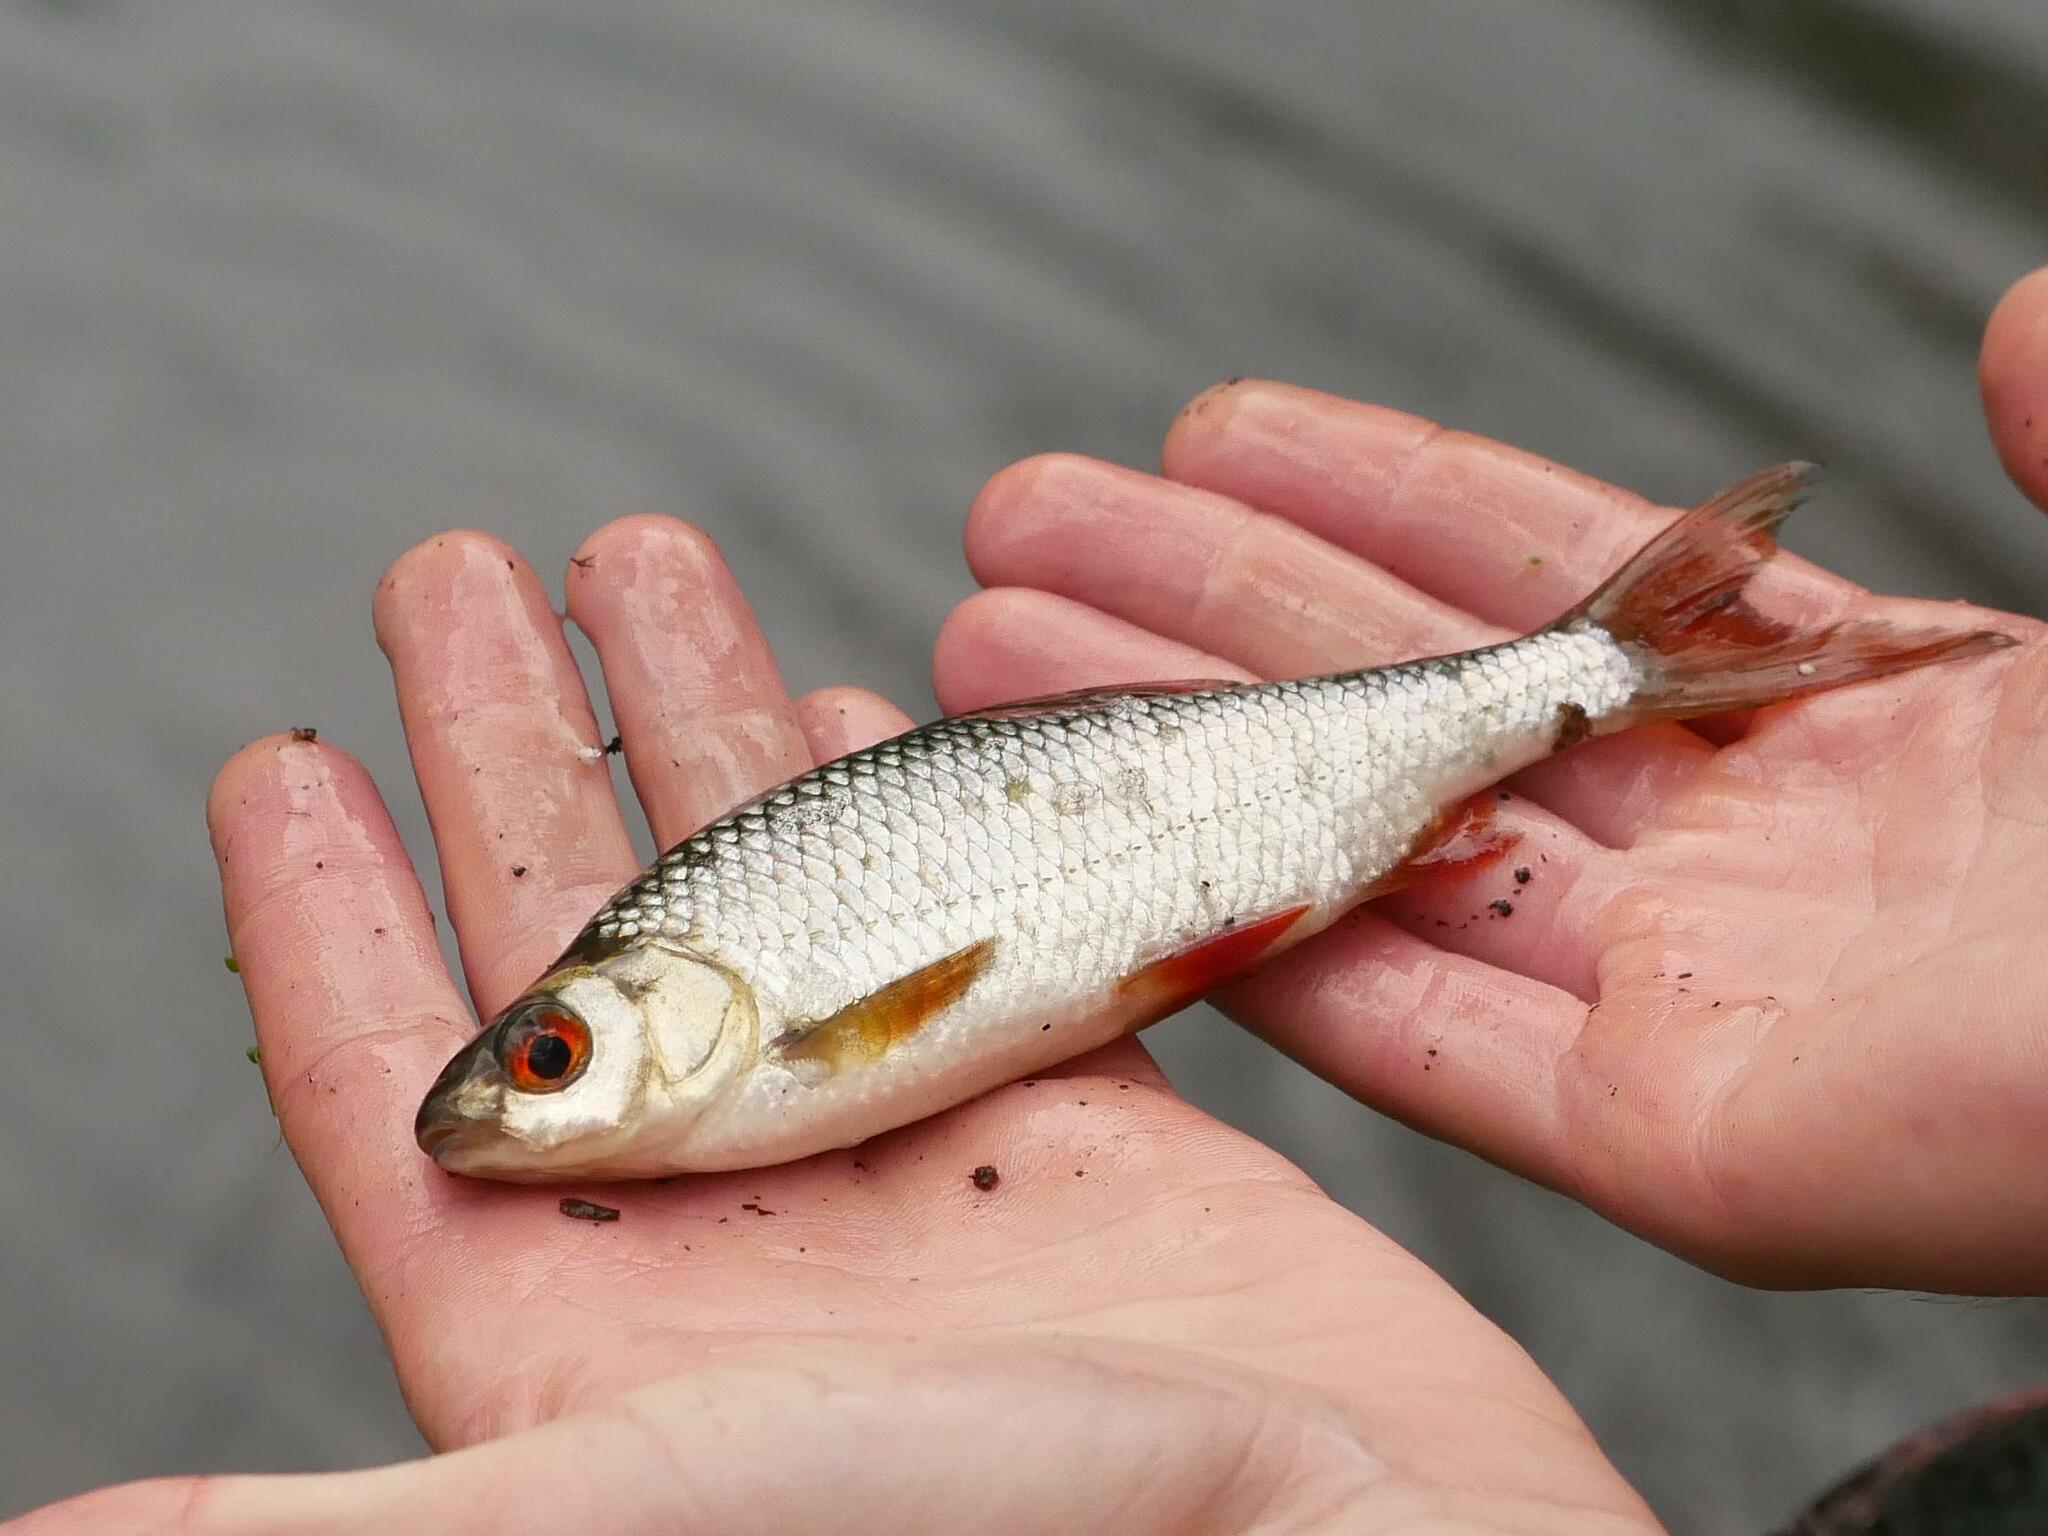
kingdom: Animalia
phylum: Chordata
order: Cypriniformes
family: Cyprinidae
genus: Rutilus
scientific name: Rutilus rutilus
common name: Roach
